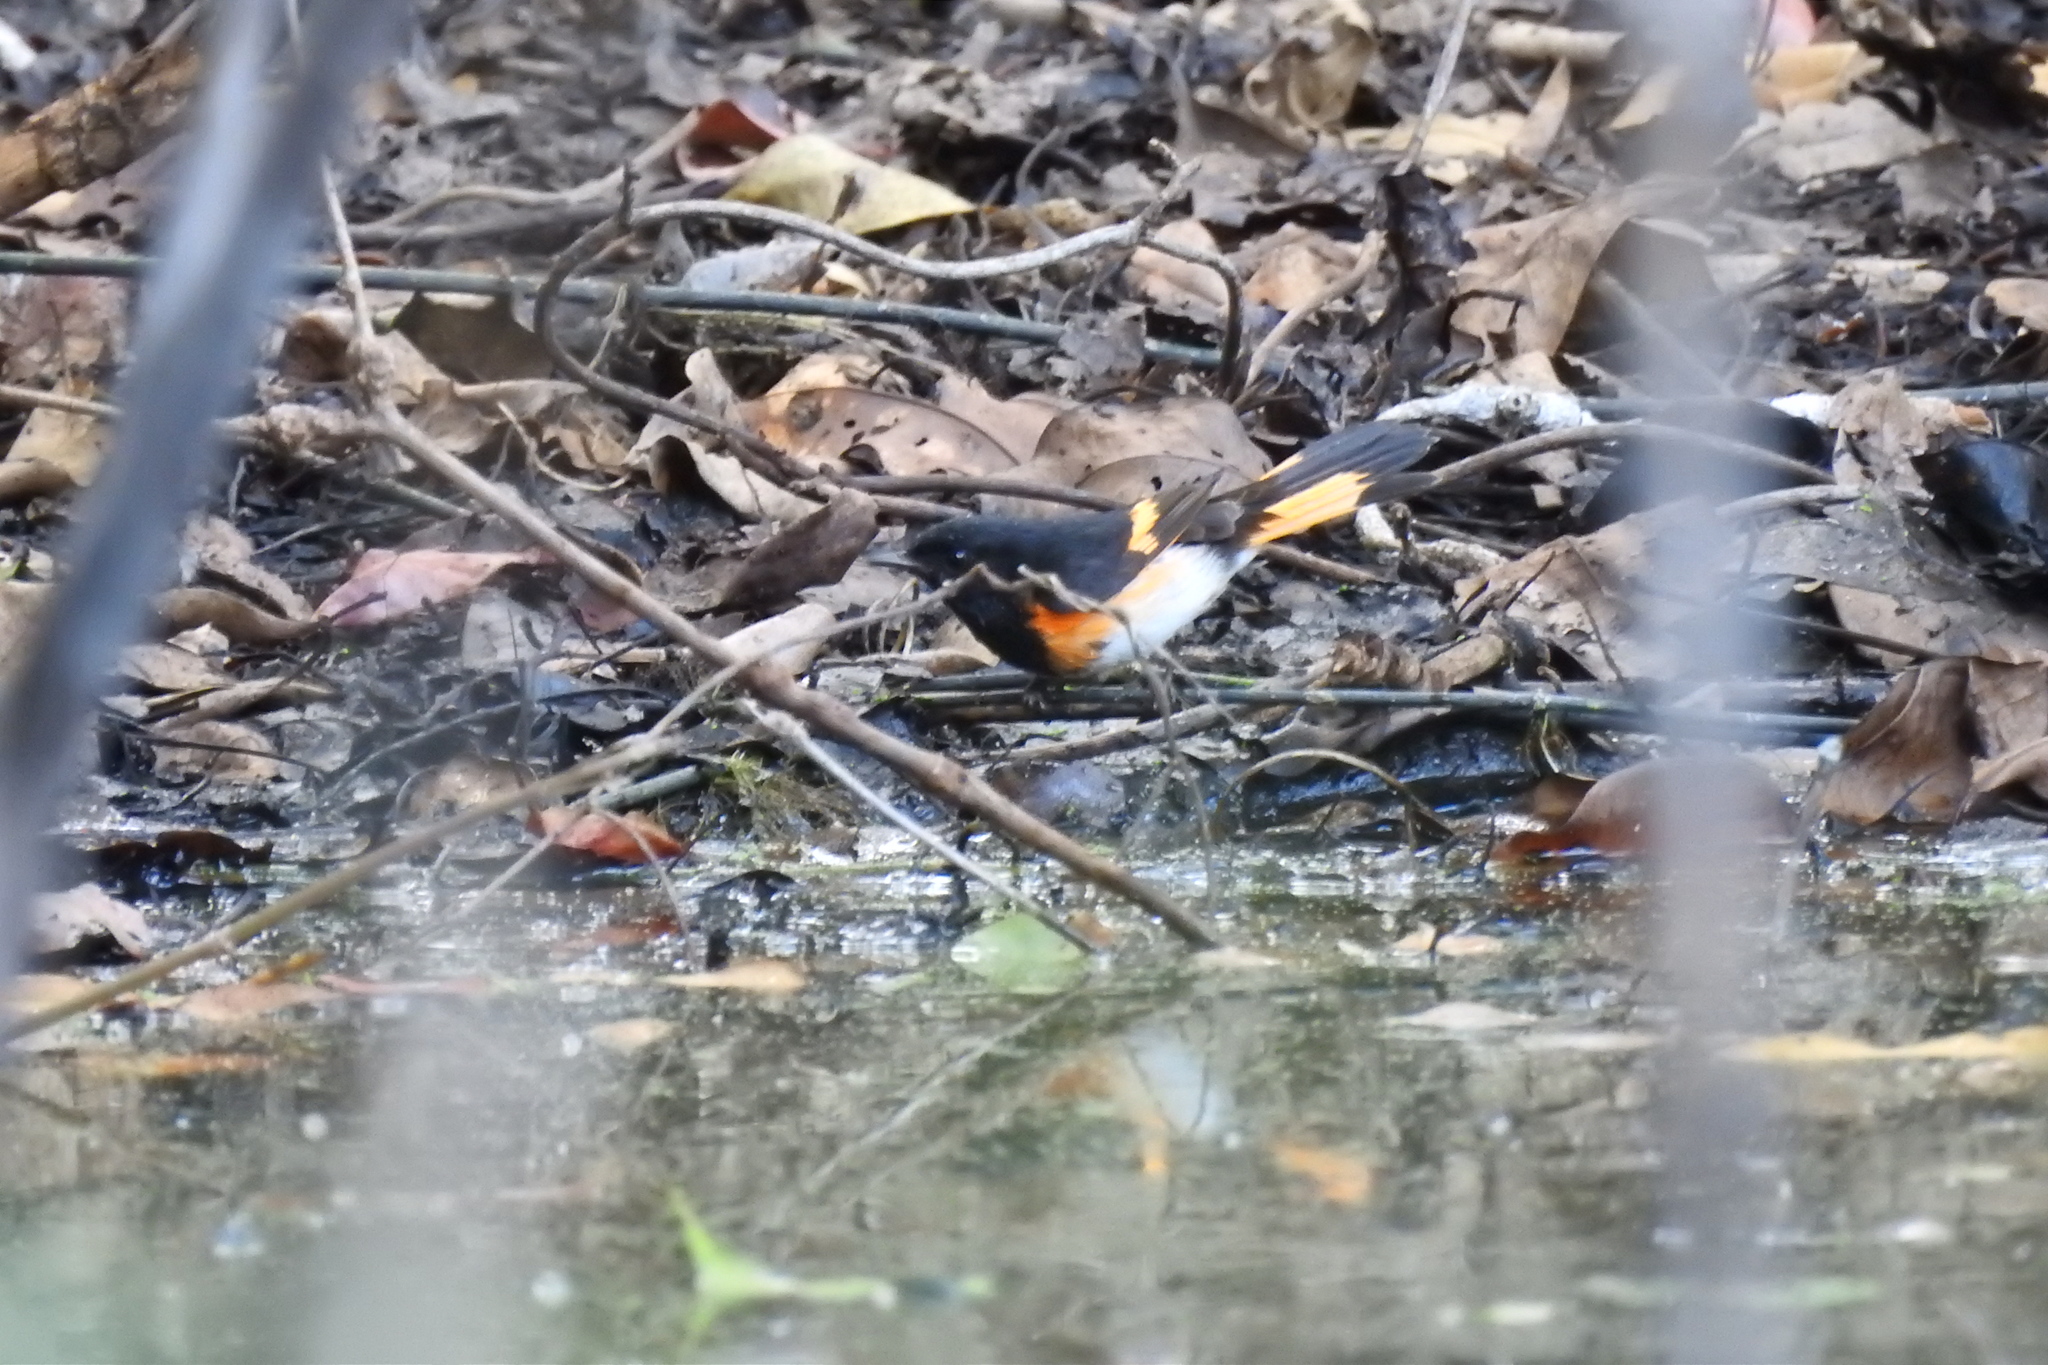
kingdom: Animalia
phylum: Chordata
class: Aves
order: Passeriformes
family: Parulidae
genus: Setophaga
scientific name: Setophaga ruticilla
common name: American redstart
